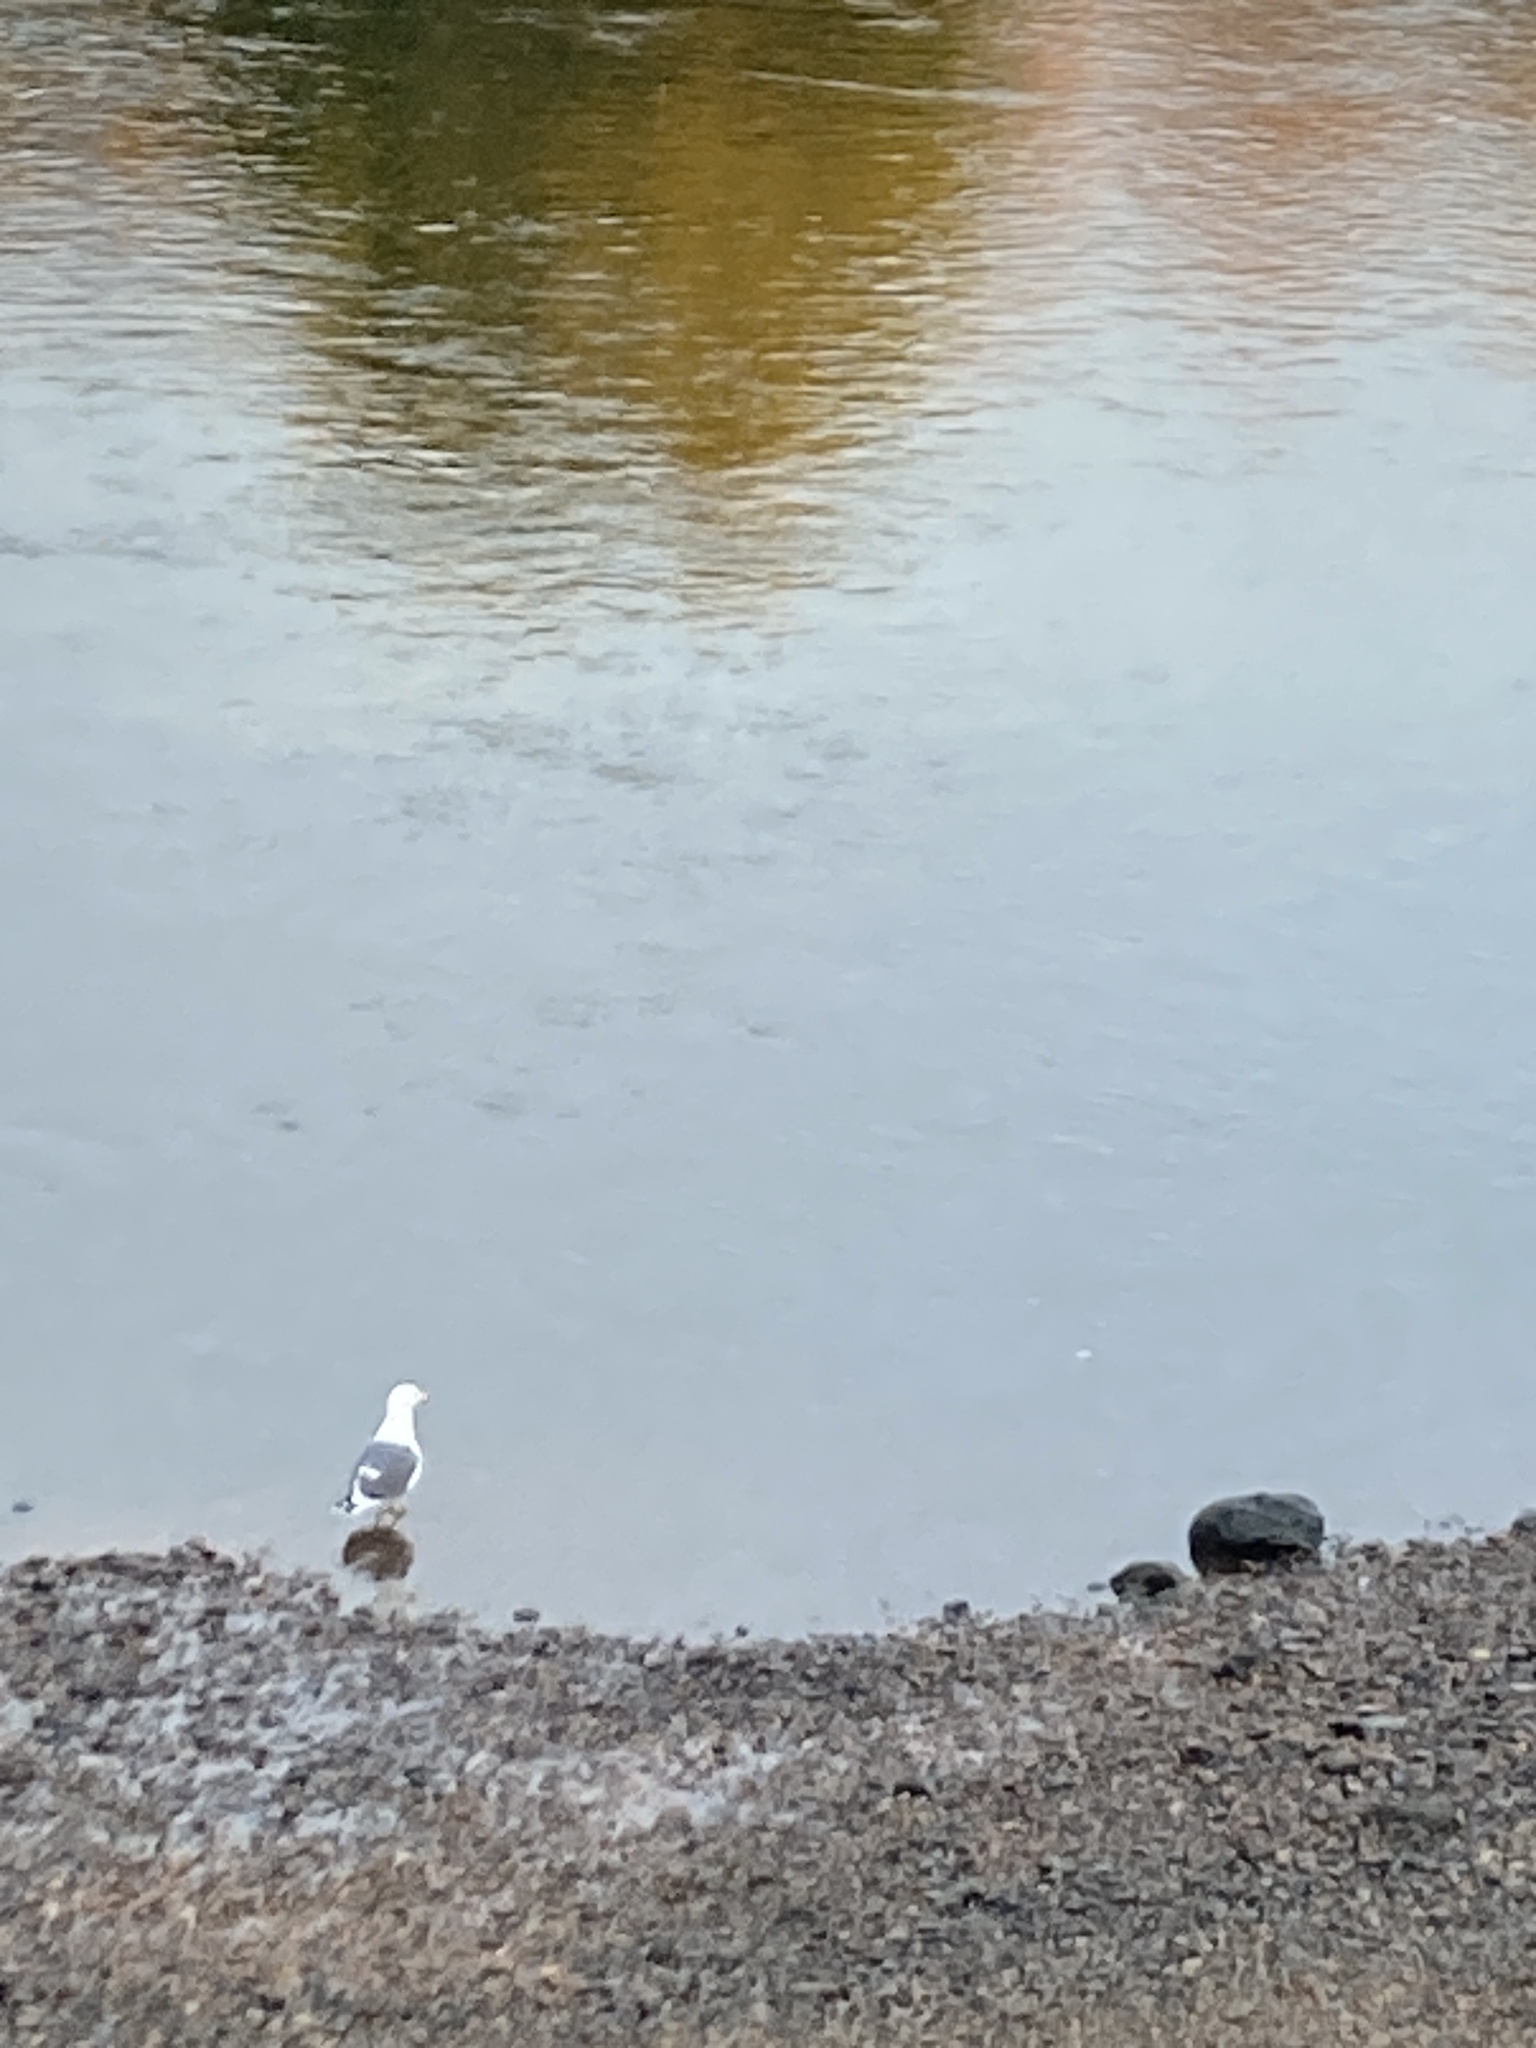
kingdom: Animalia
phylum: Chordata
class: Aves
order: Charadriiformes
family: Laridae
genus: Larus
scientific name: Larus fuscus
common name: Lesser black-backed gull
